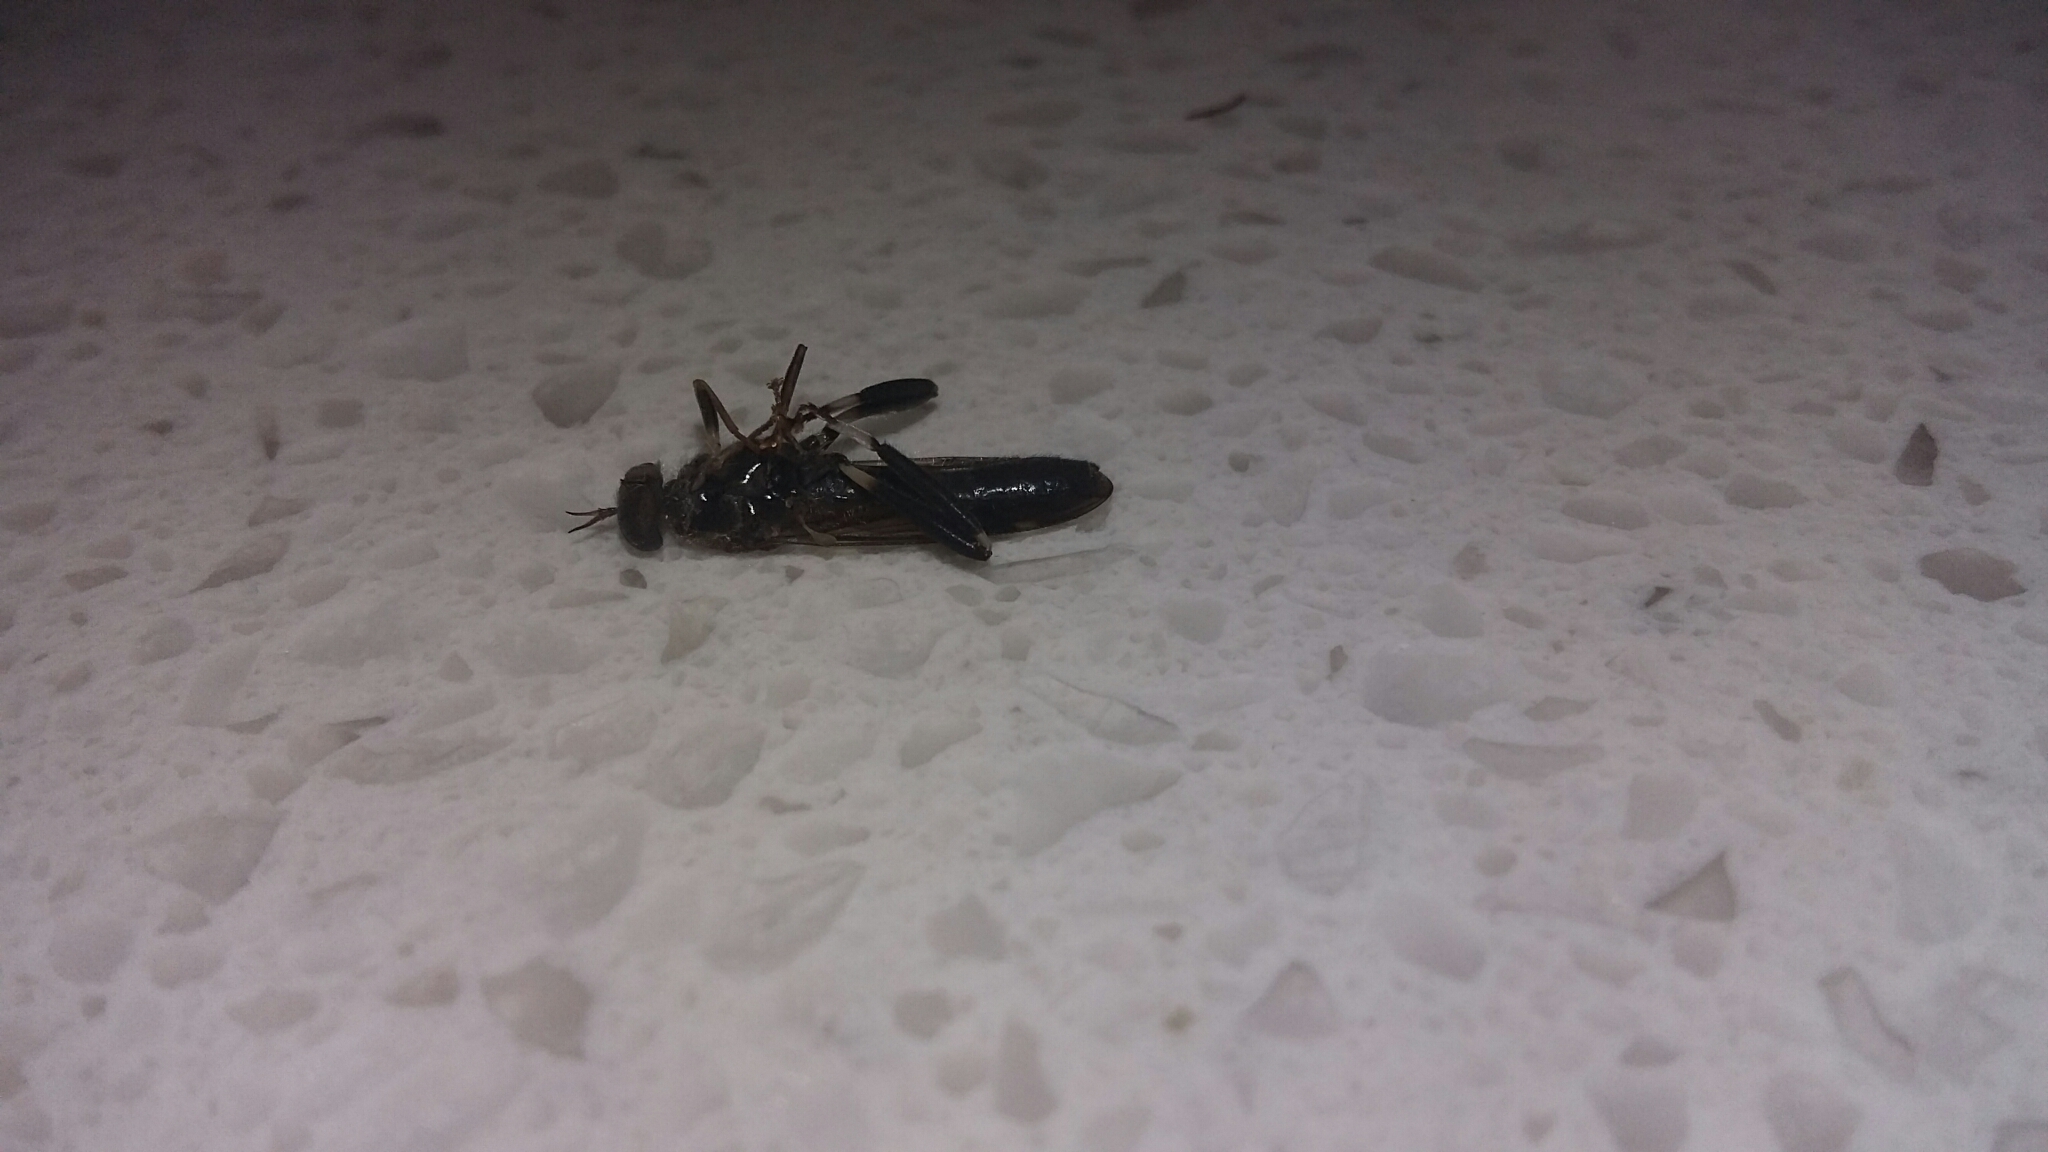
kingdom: Animalia
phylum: Arthropoda
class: Insecta
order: Diptera
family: Stratiomyidae
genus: Exaireta
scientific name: Exaireta spinigera
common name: Blue soldier fly
